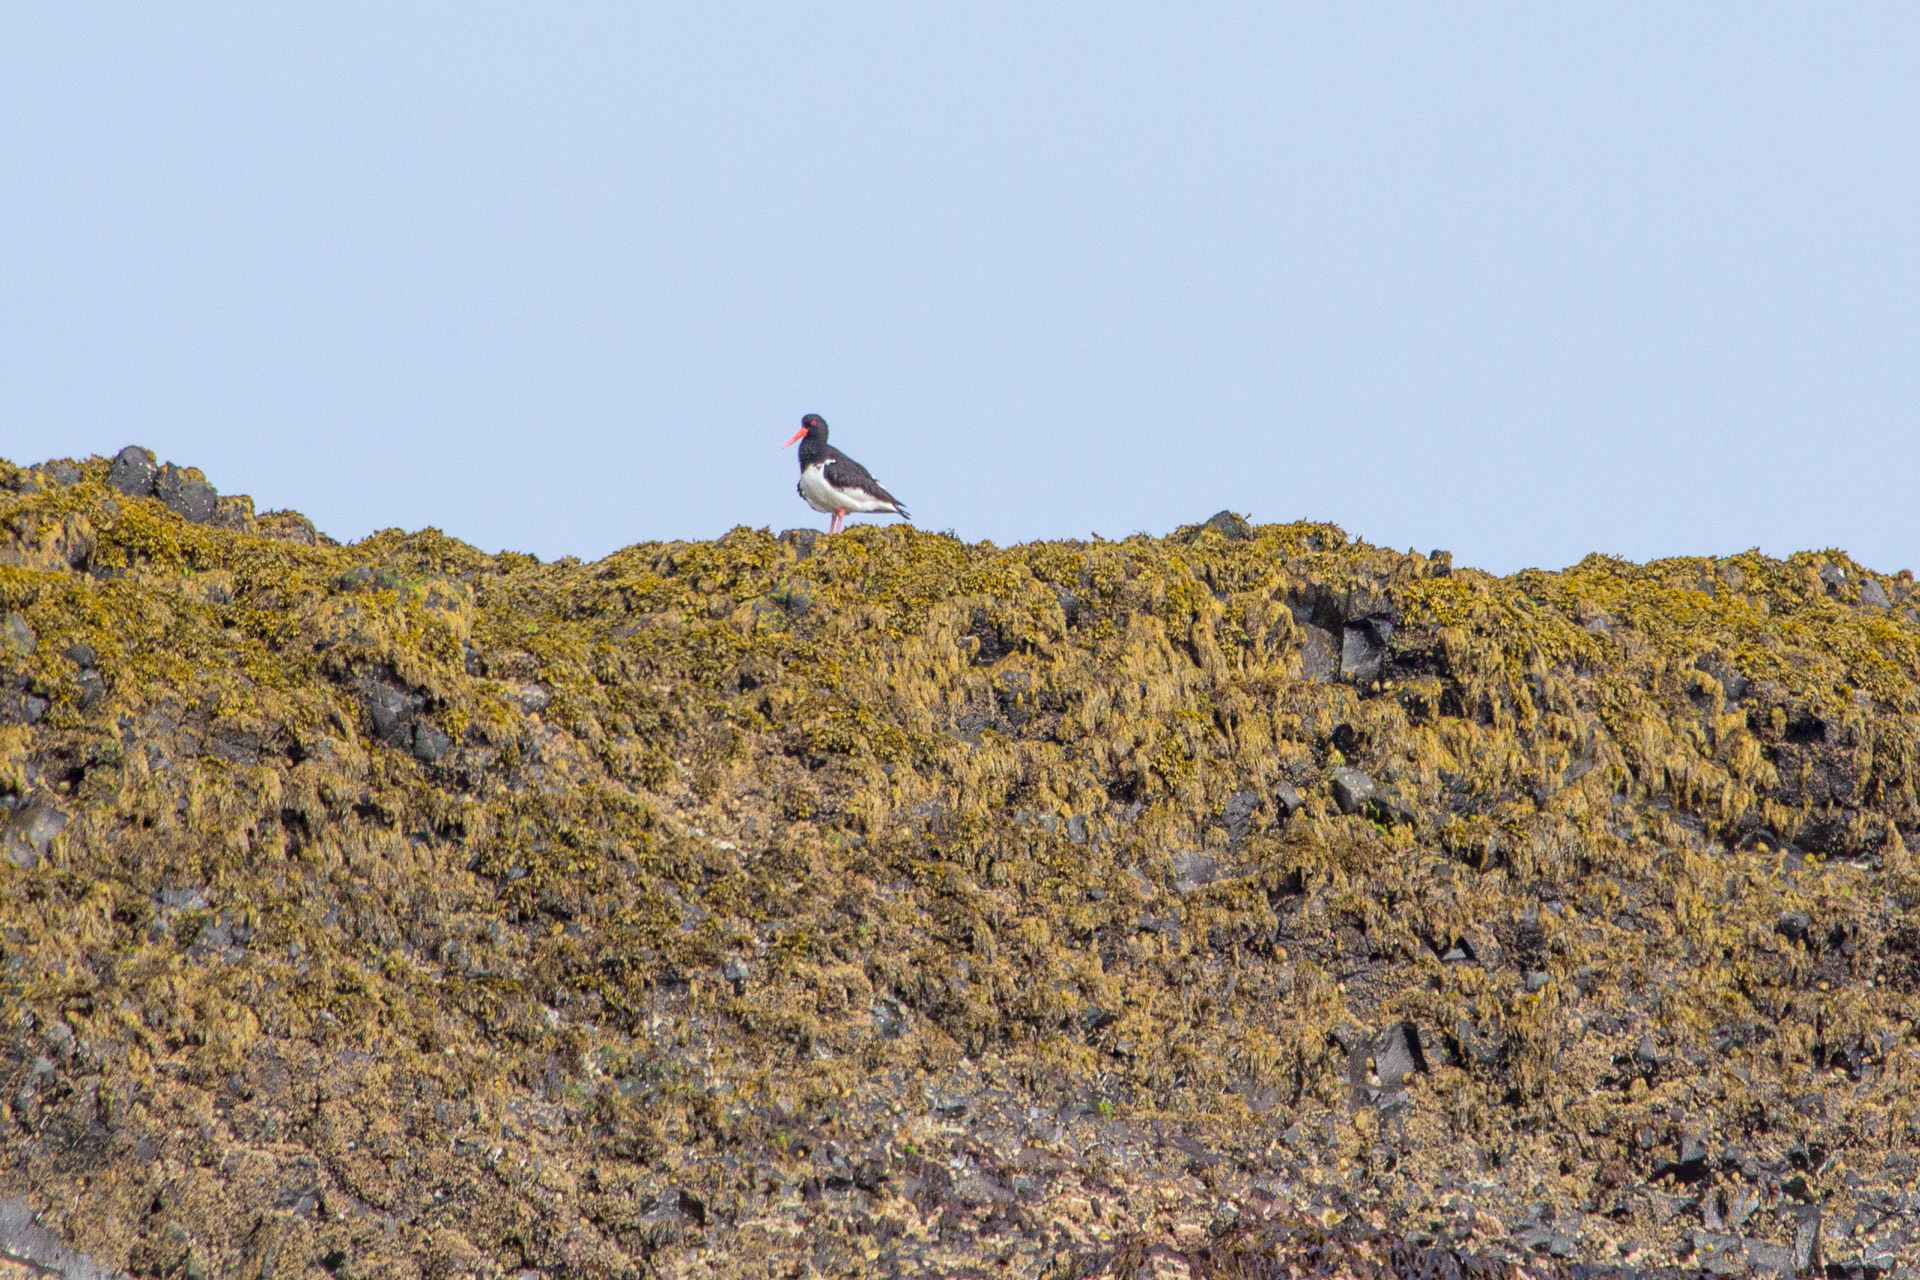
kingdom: Animalia
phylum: Chordata
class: Aves
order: Charadriiformes
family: Haematopodidae
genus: Haematopus
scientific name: Haematopus ostralegus
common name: Eurasian oystercatcher
